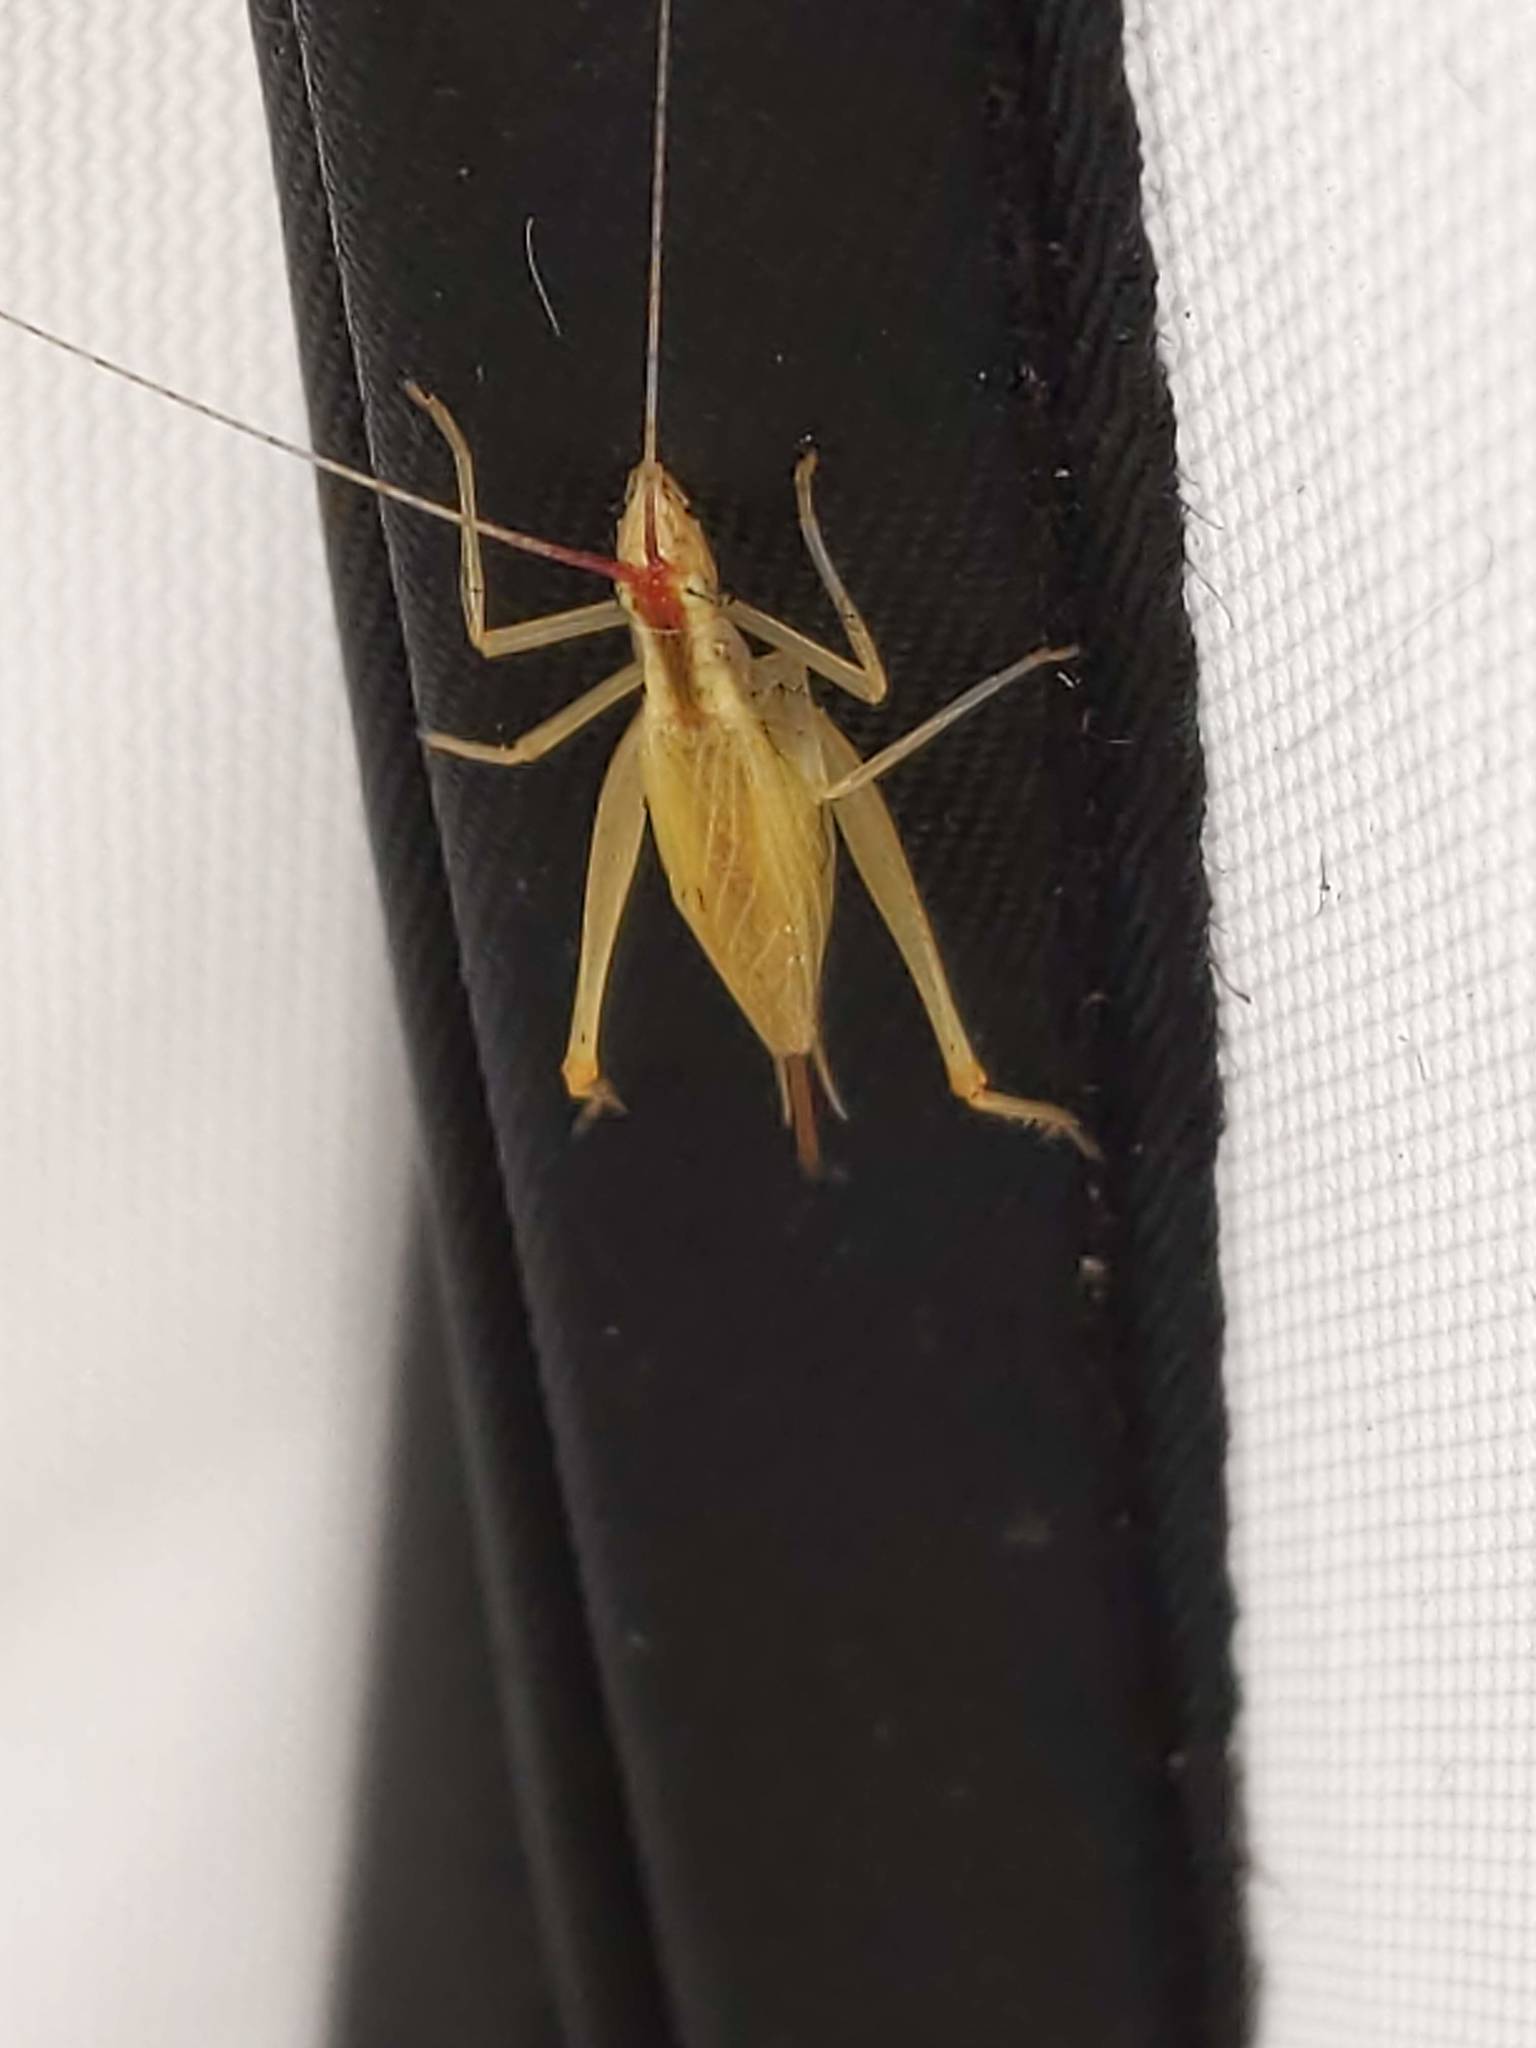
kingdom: Animalia
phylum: Arthropoda
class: Insecta
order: Orthoptera
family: Gryllidae
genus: Oecanthus
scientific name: Oecanthus latipennis
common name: Broad-winged tree cricket
